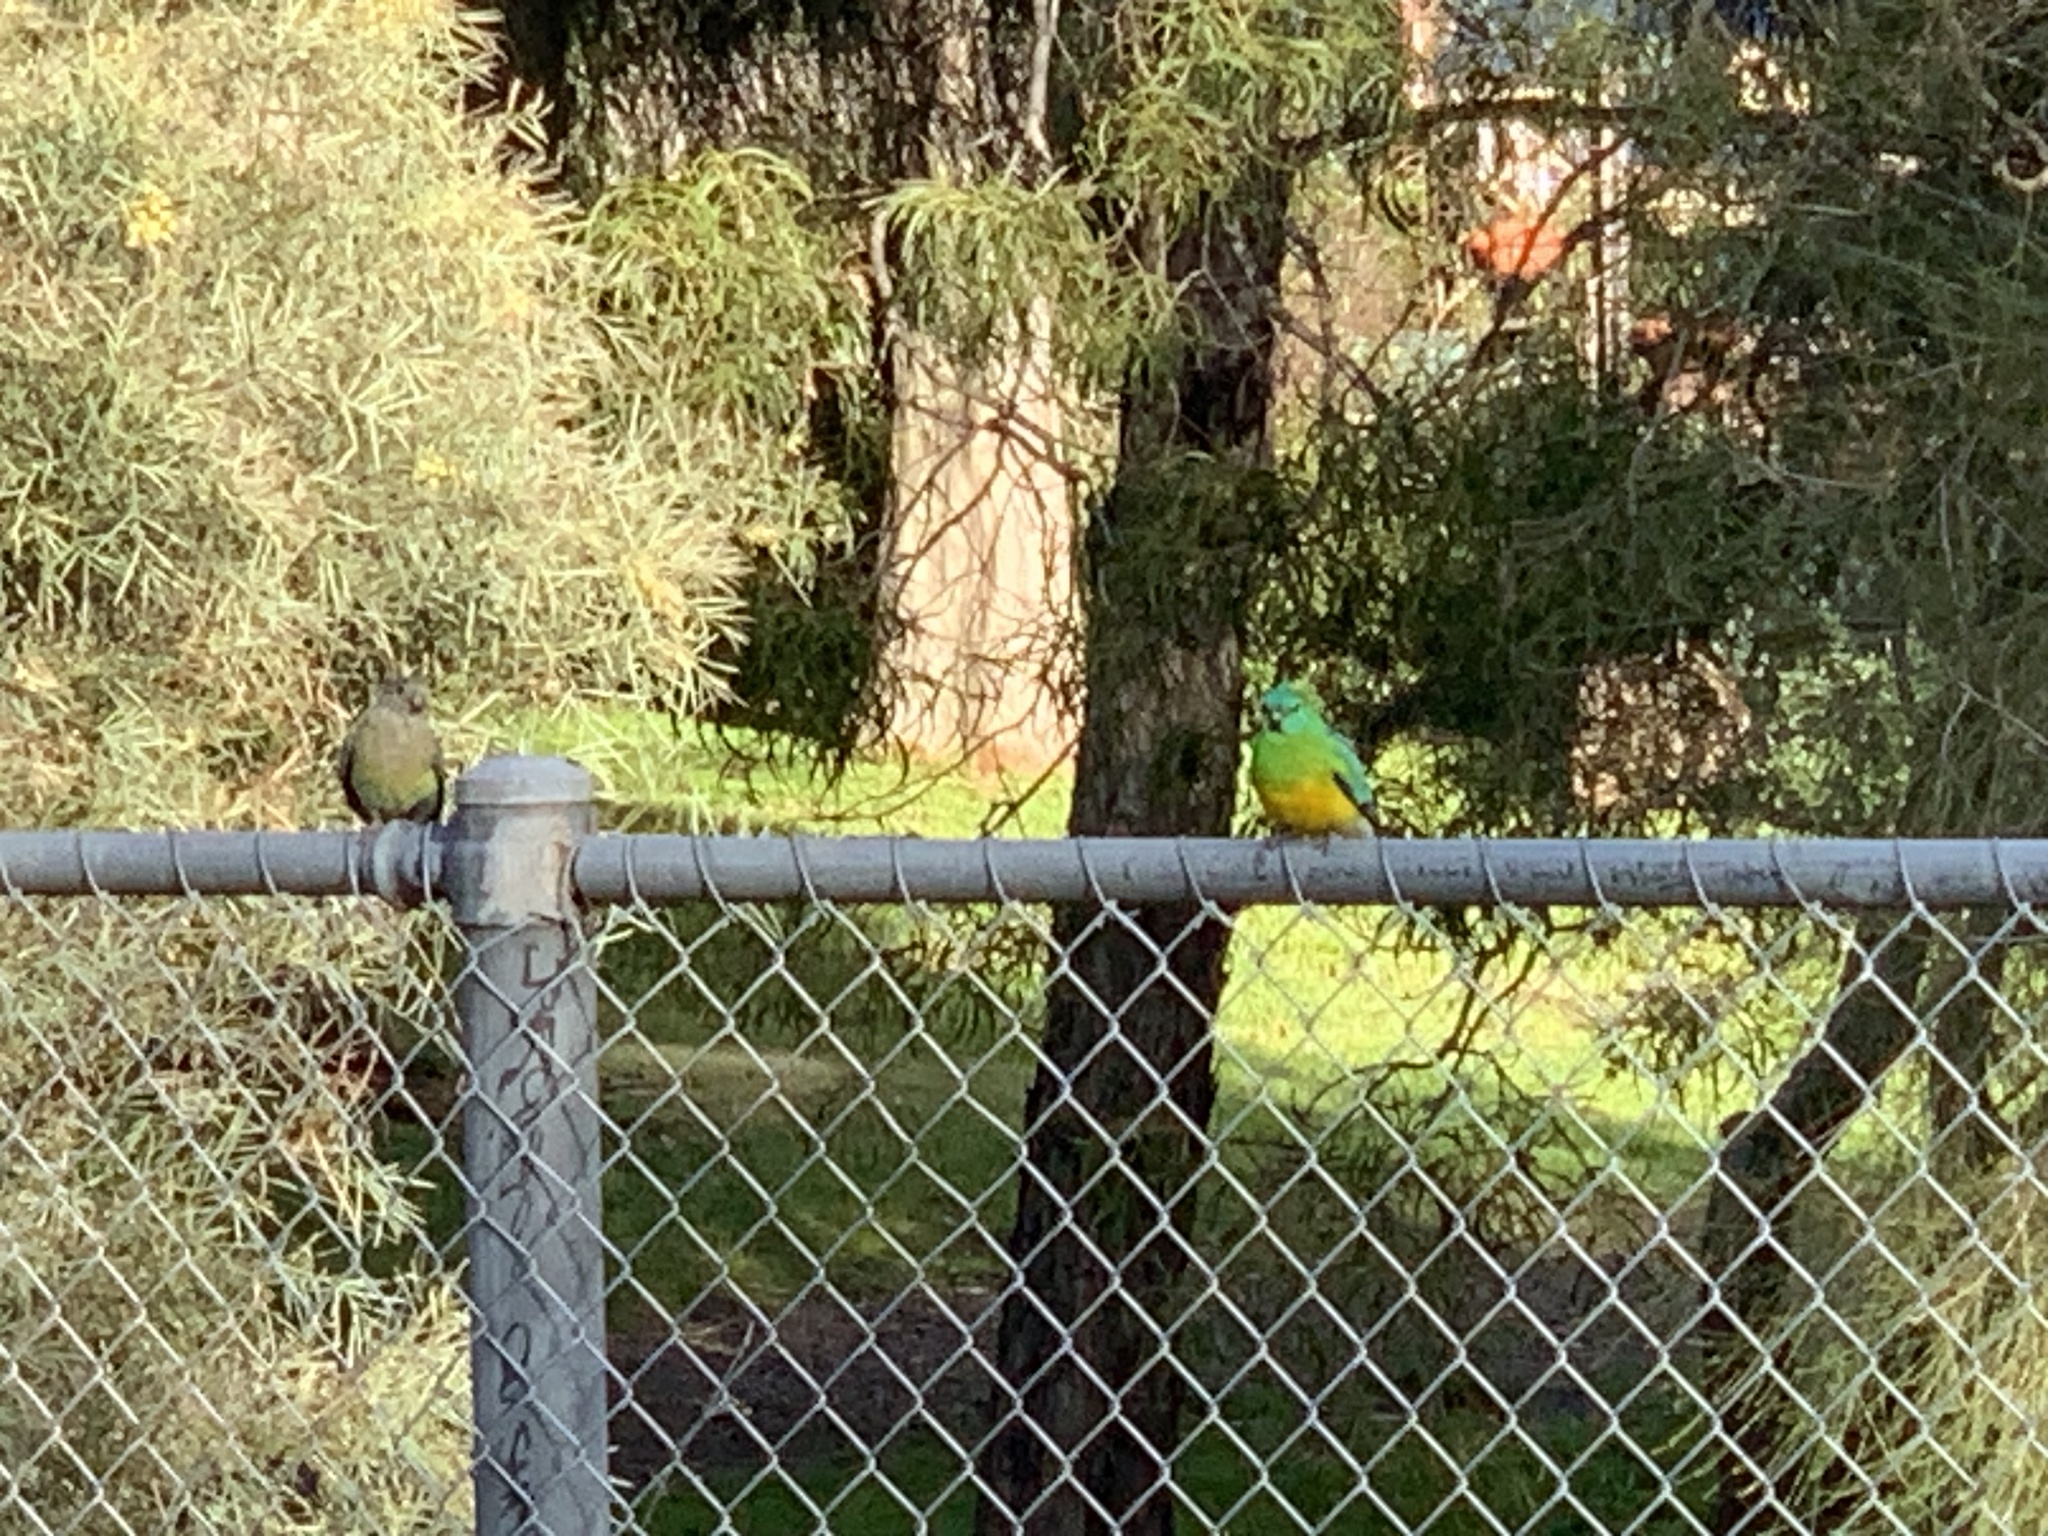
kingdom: Animalia
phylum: Chordata
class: Aves
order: Psittaciformes
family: Psittacidae
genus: Psephotus
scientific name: Psephotus haematonotus
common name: Red-rumped parrot
